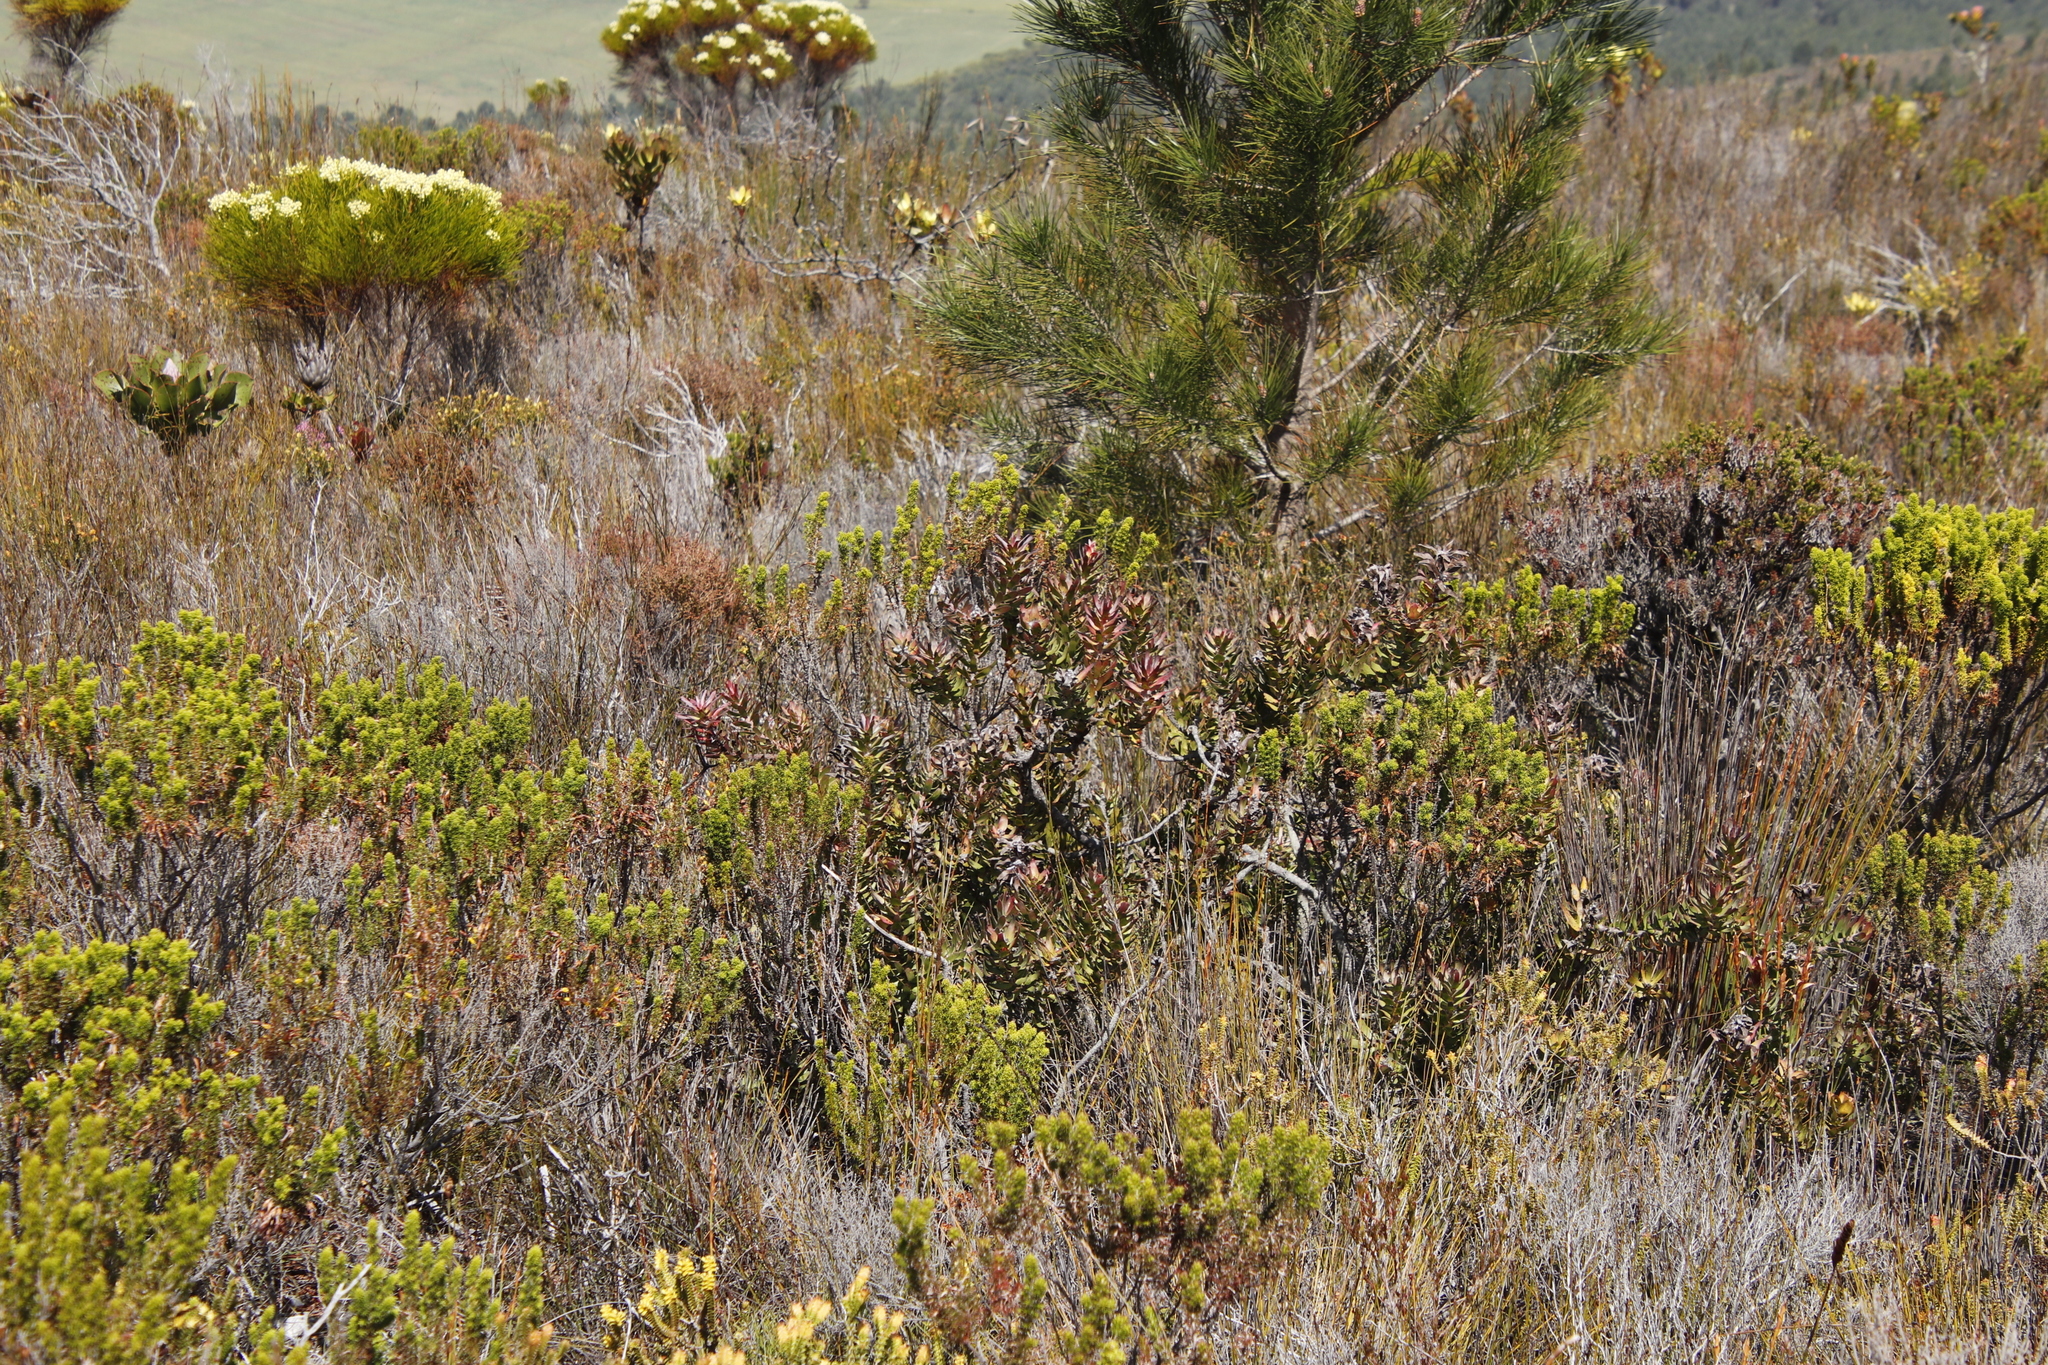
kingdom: Plantae
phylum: Tracheophyta
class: Magnoliopsida
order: Proteales
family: Proteaceae
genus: Mimetes
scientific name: Mimetes cucullatus
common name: Common pagoda
